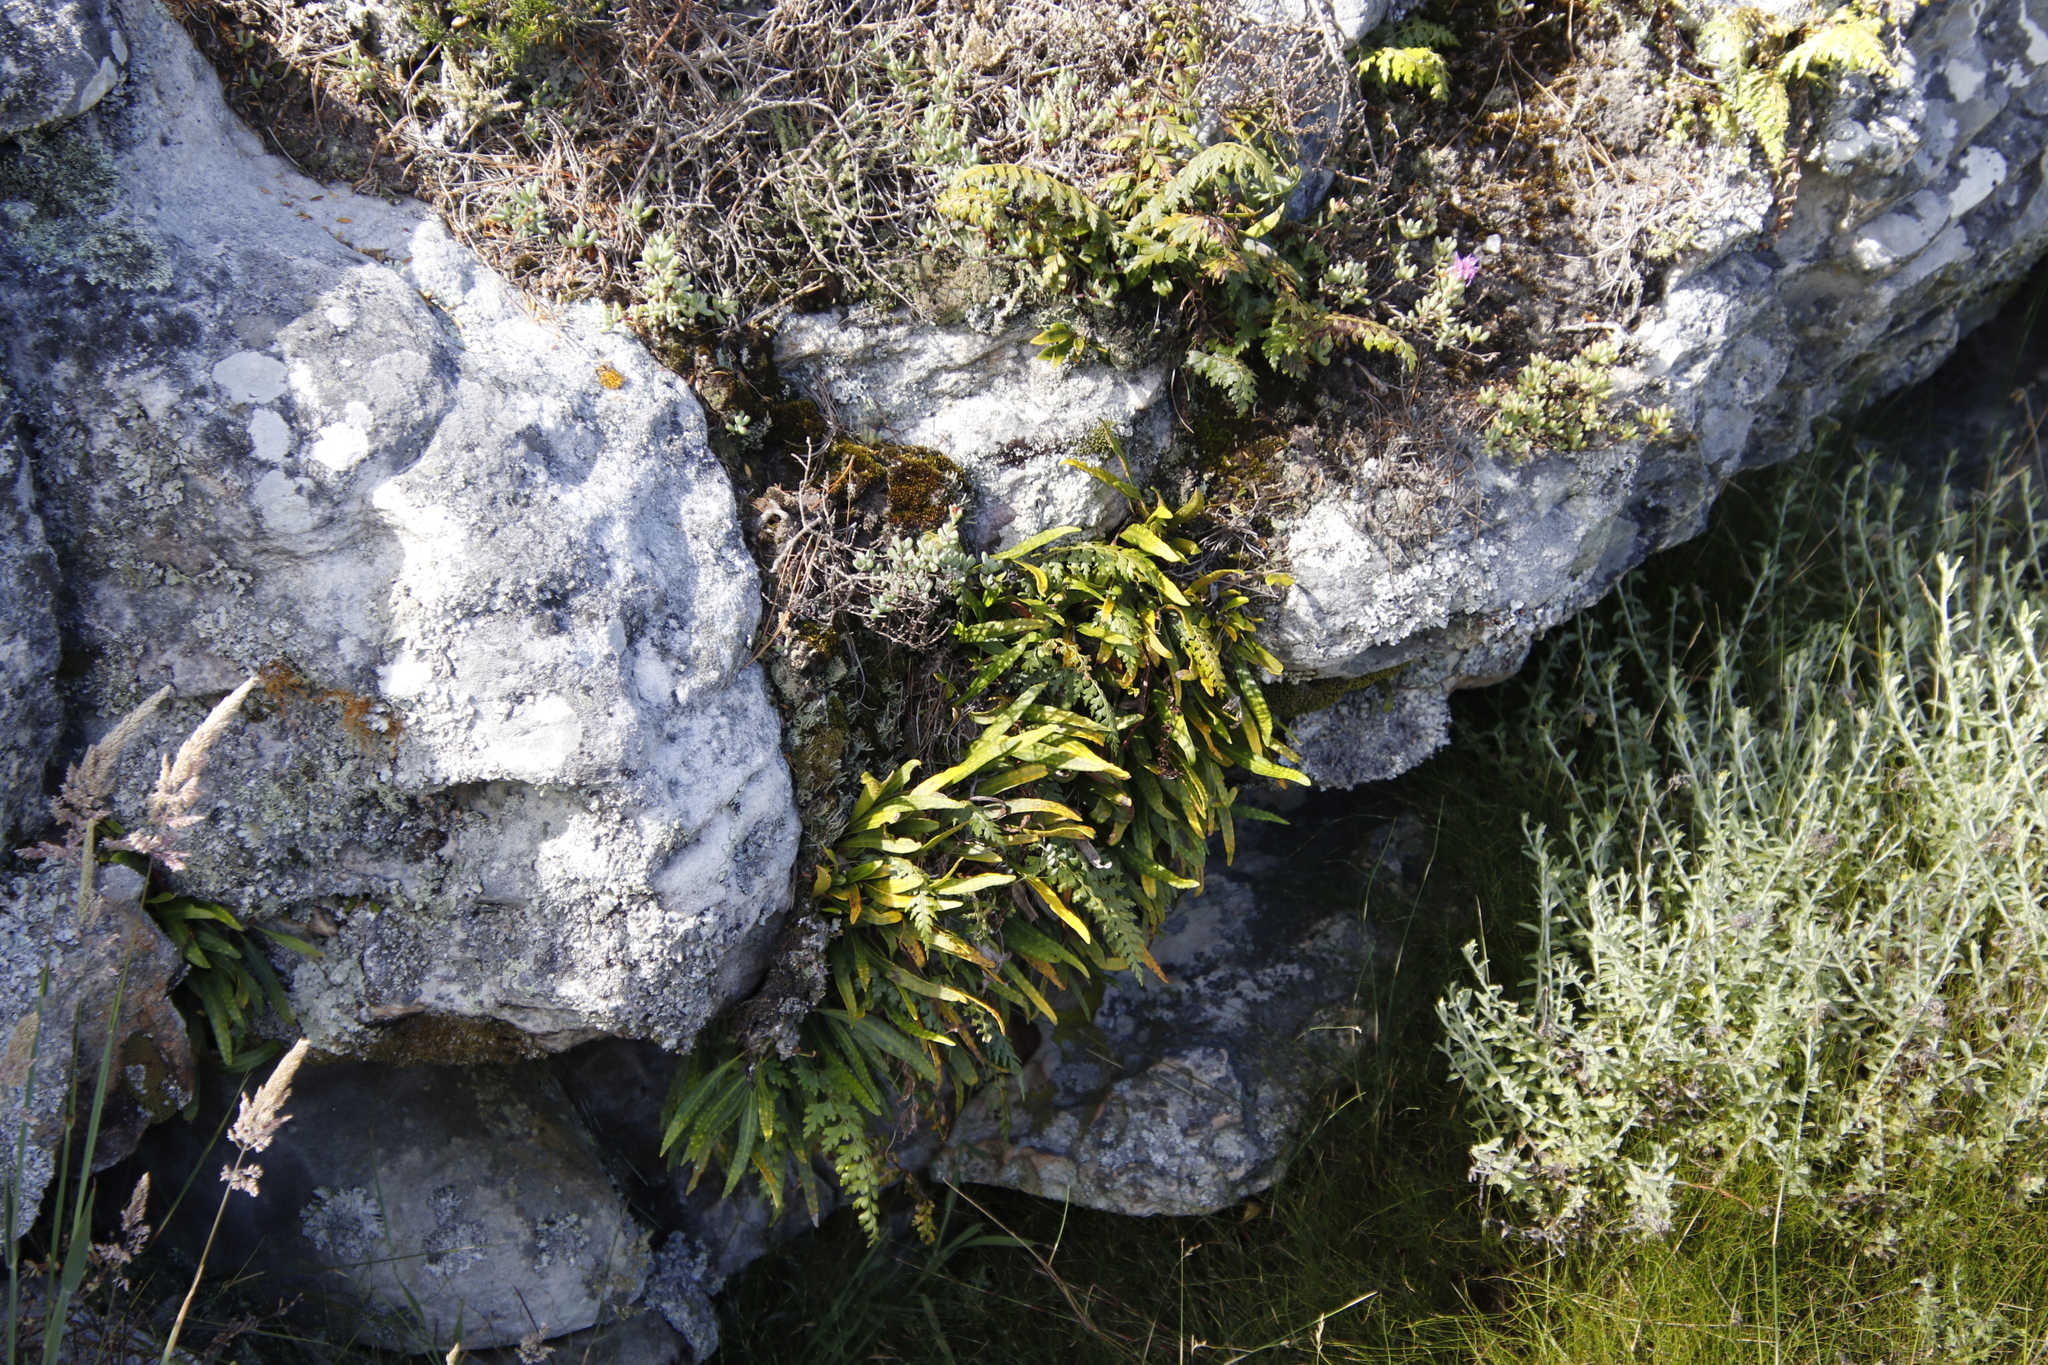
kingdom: Plantae
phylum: Tracheophyta
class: Polypodiopsida
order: Polypodiales
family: Polypodiaceae
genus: Pleopeltis
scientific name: Pleopeltis macrocarpa
